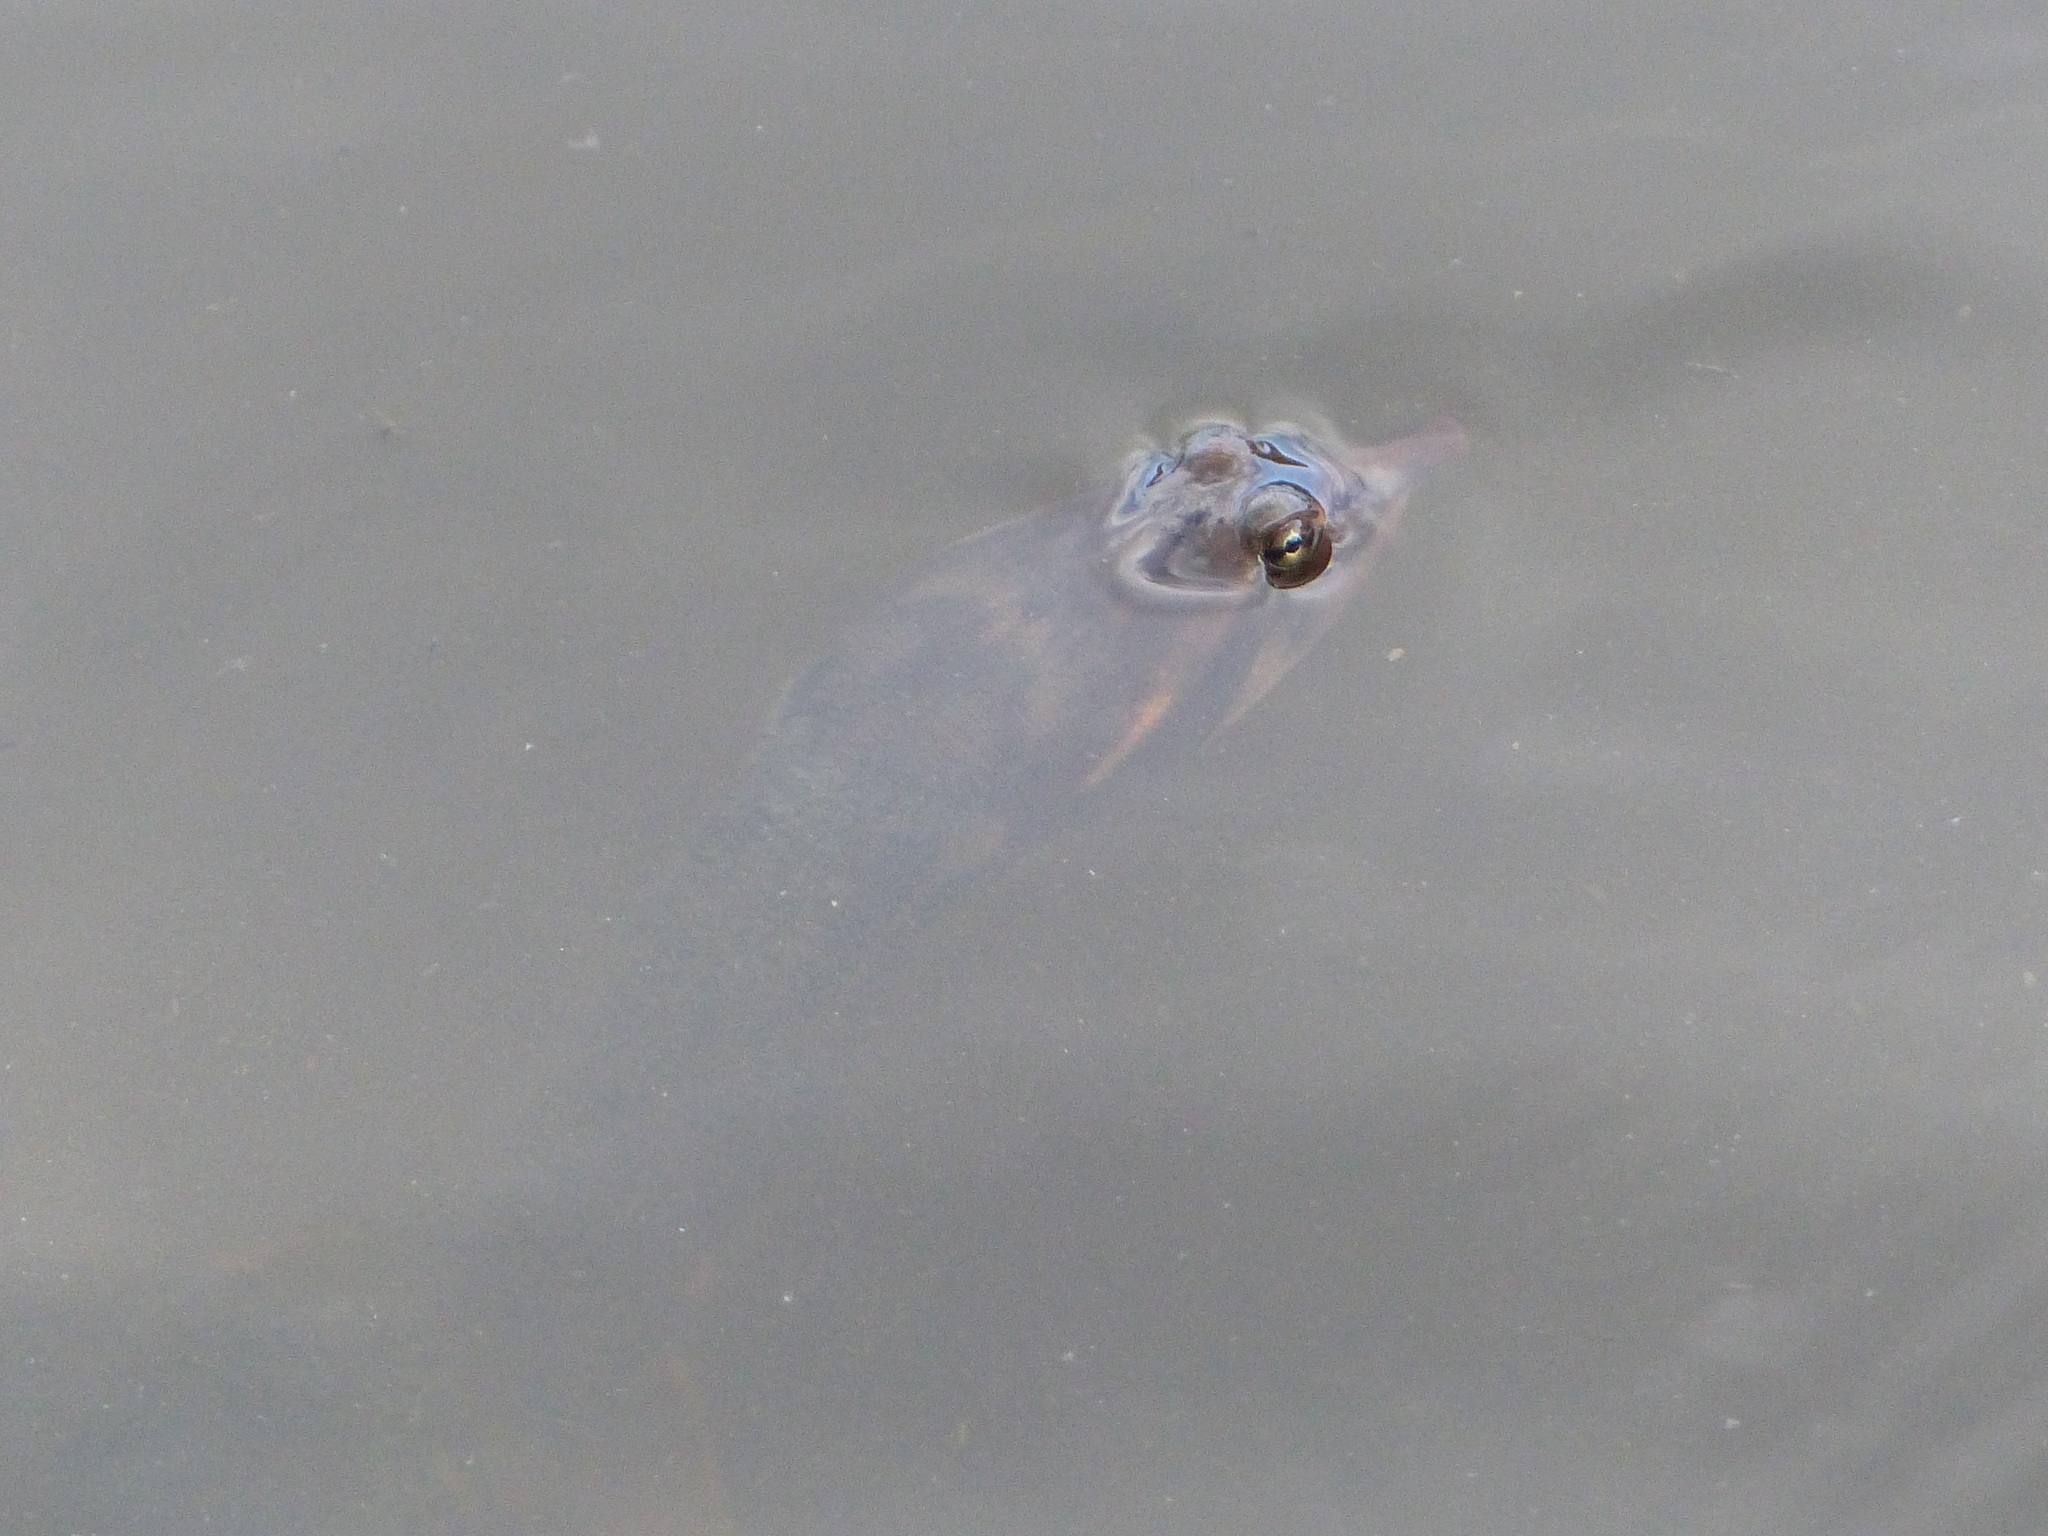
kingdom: Animalia
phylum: Chordata
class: Testudines
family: Trionychidae
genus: Apalone
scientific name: Apalone ferox
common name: Florida softshell turtle
